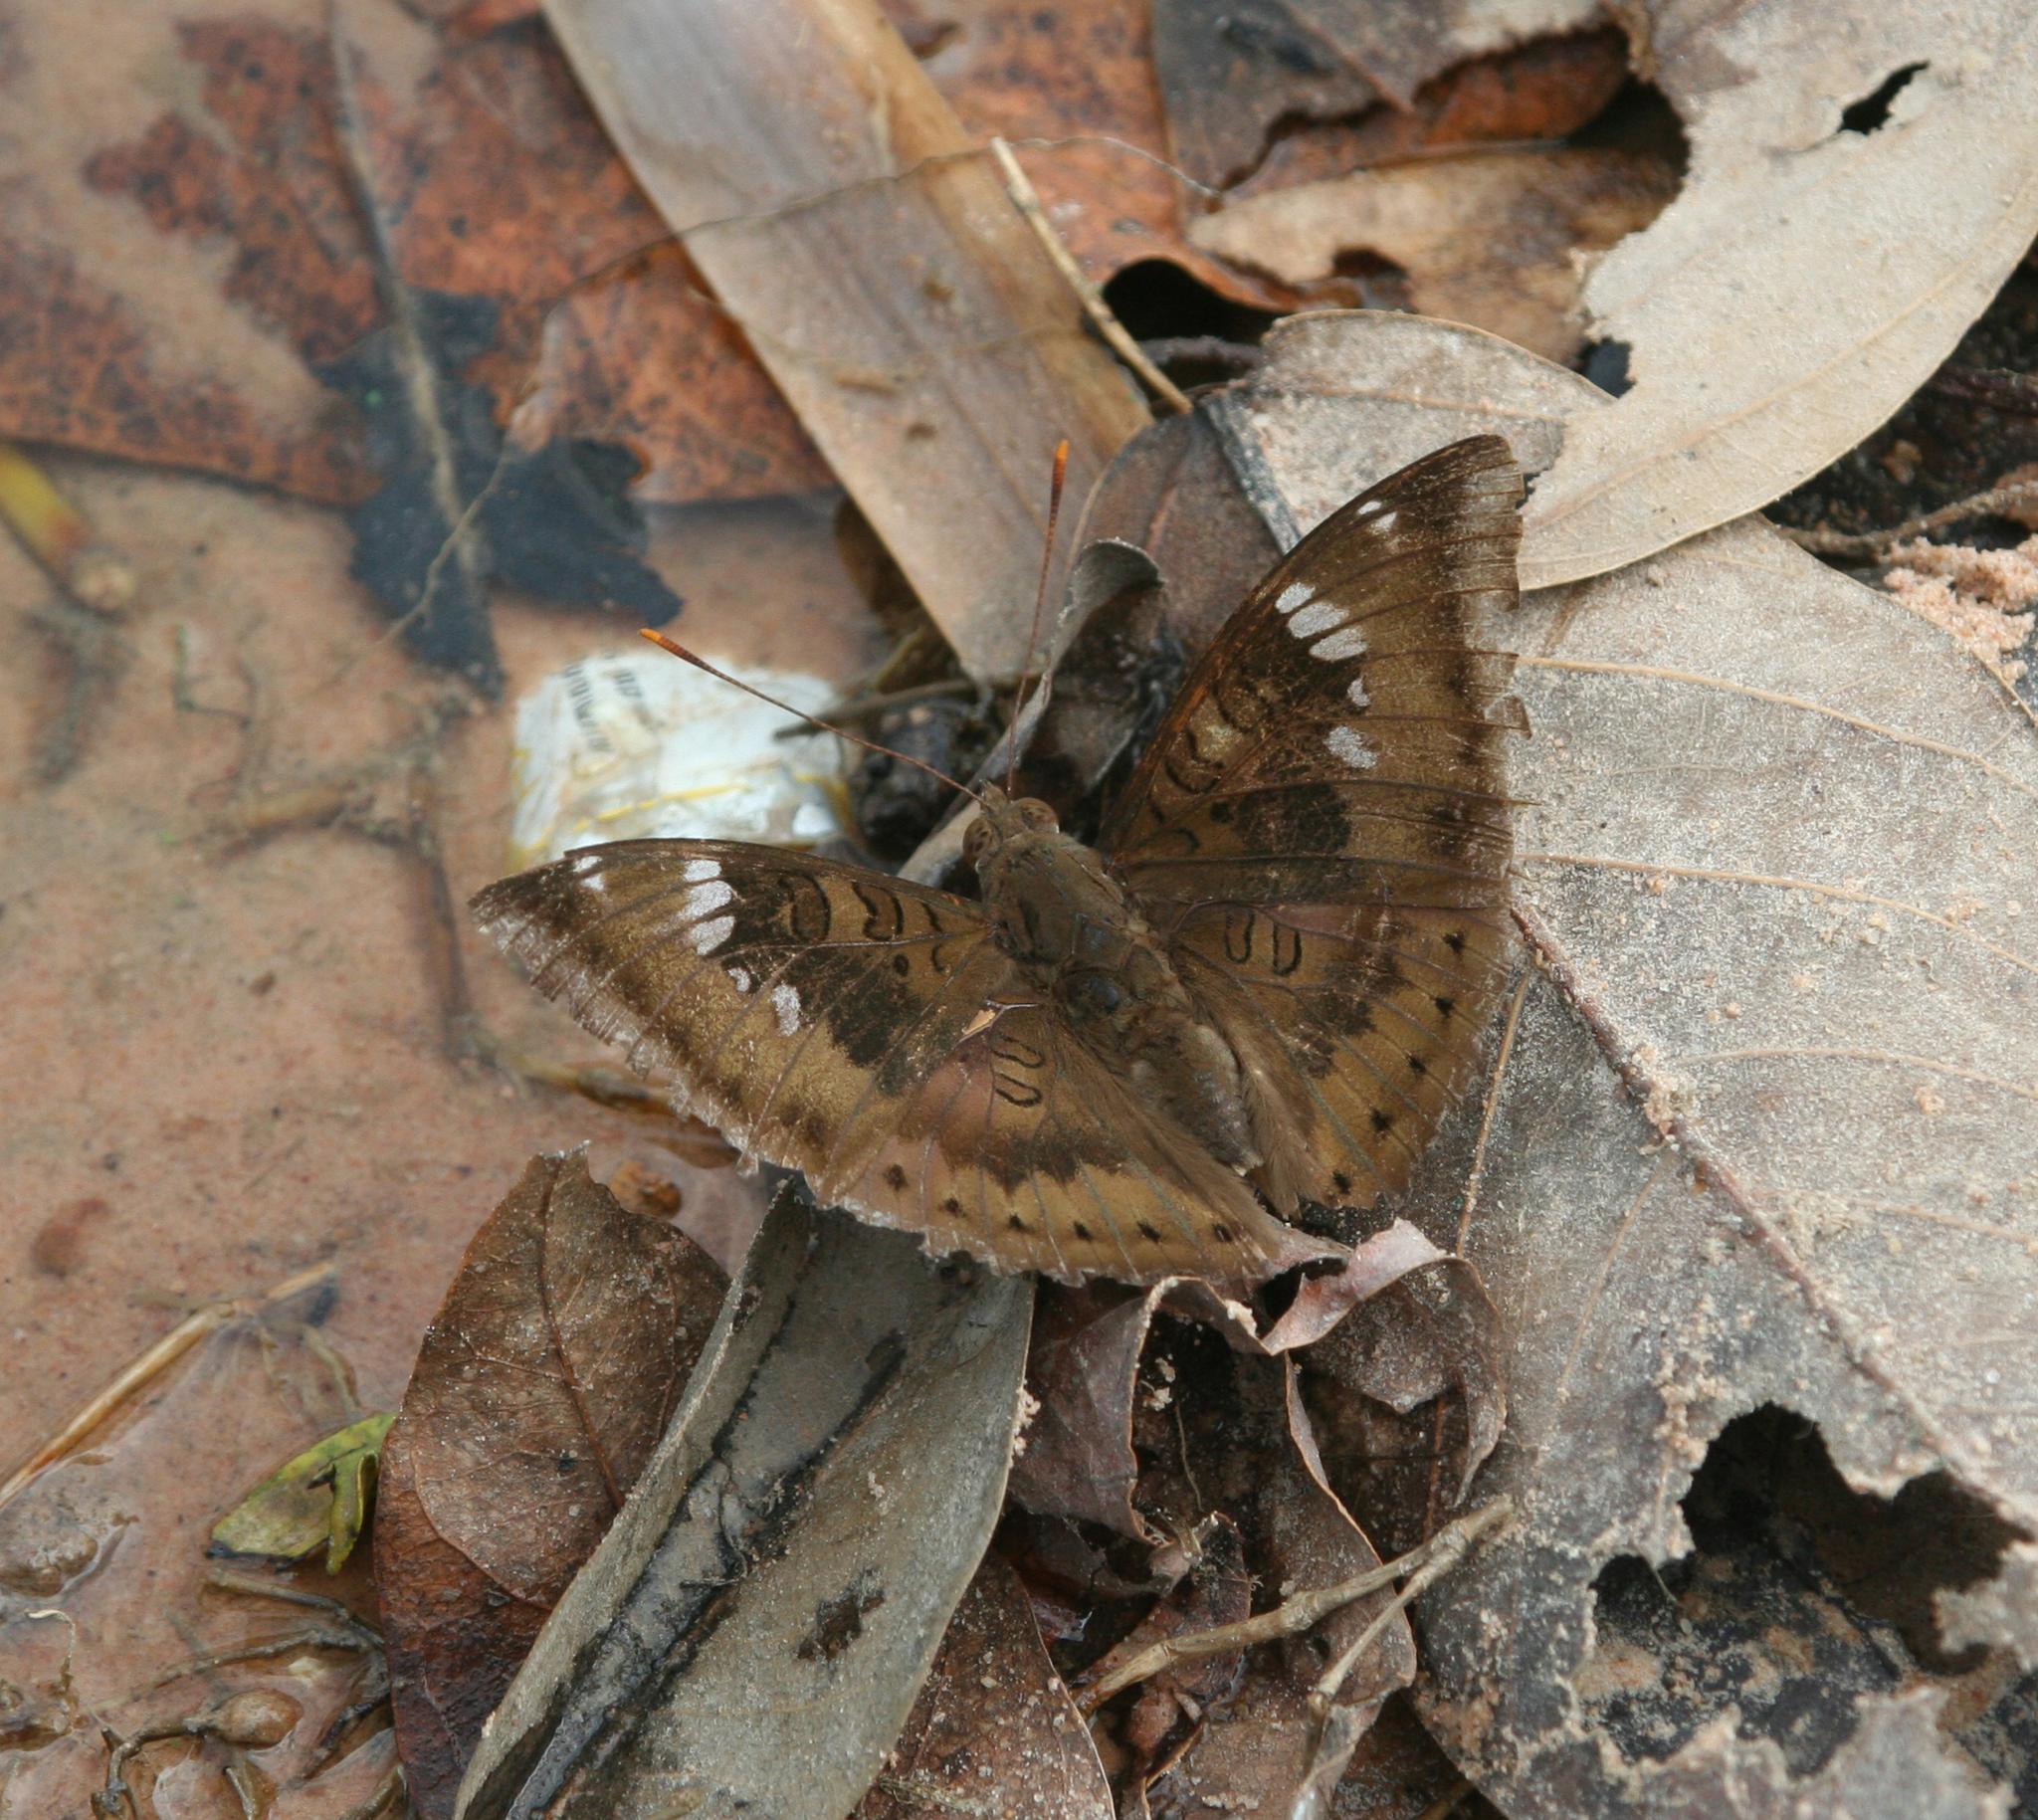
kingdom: Animalia
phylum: Arthropoda
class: Insecta
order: Lepidoptera
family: Nymphalidae
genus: Euthalia
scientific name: Euthalia aconthea
